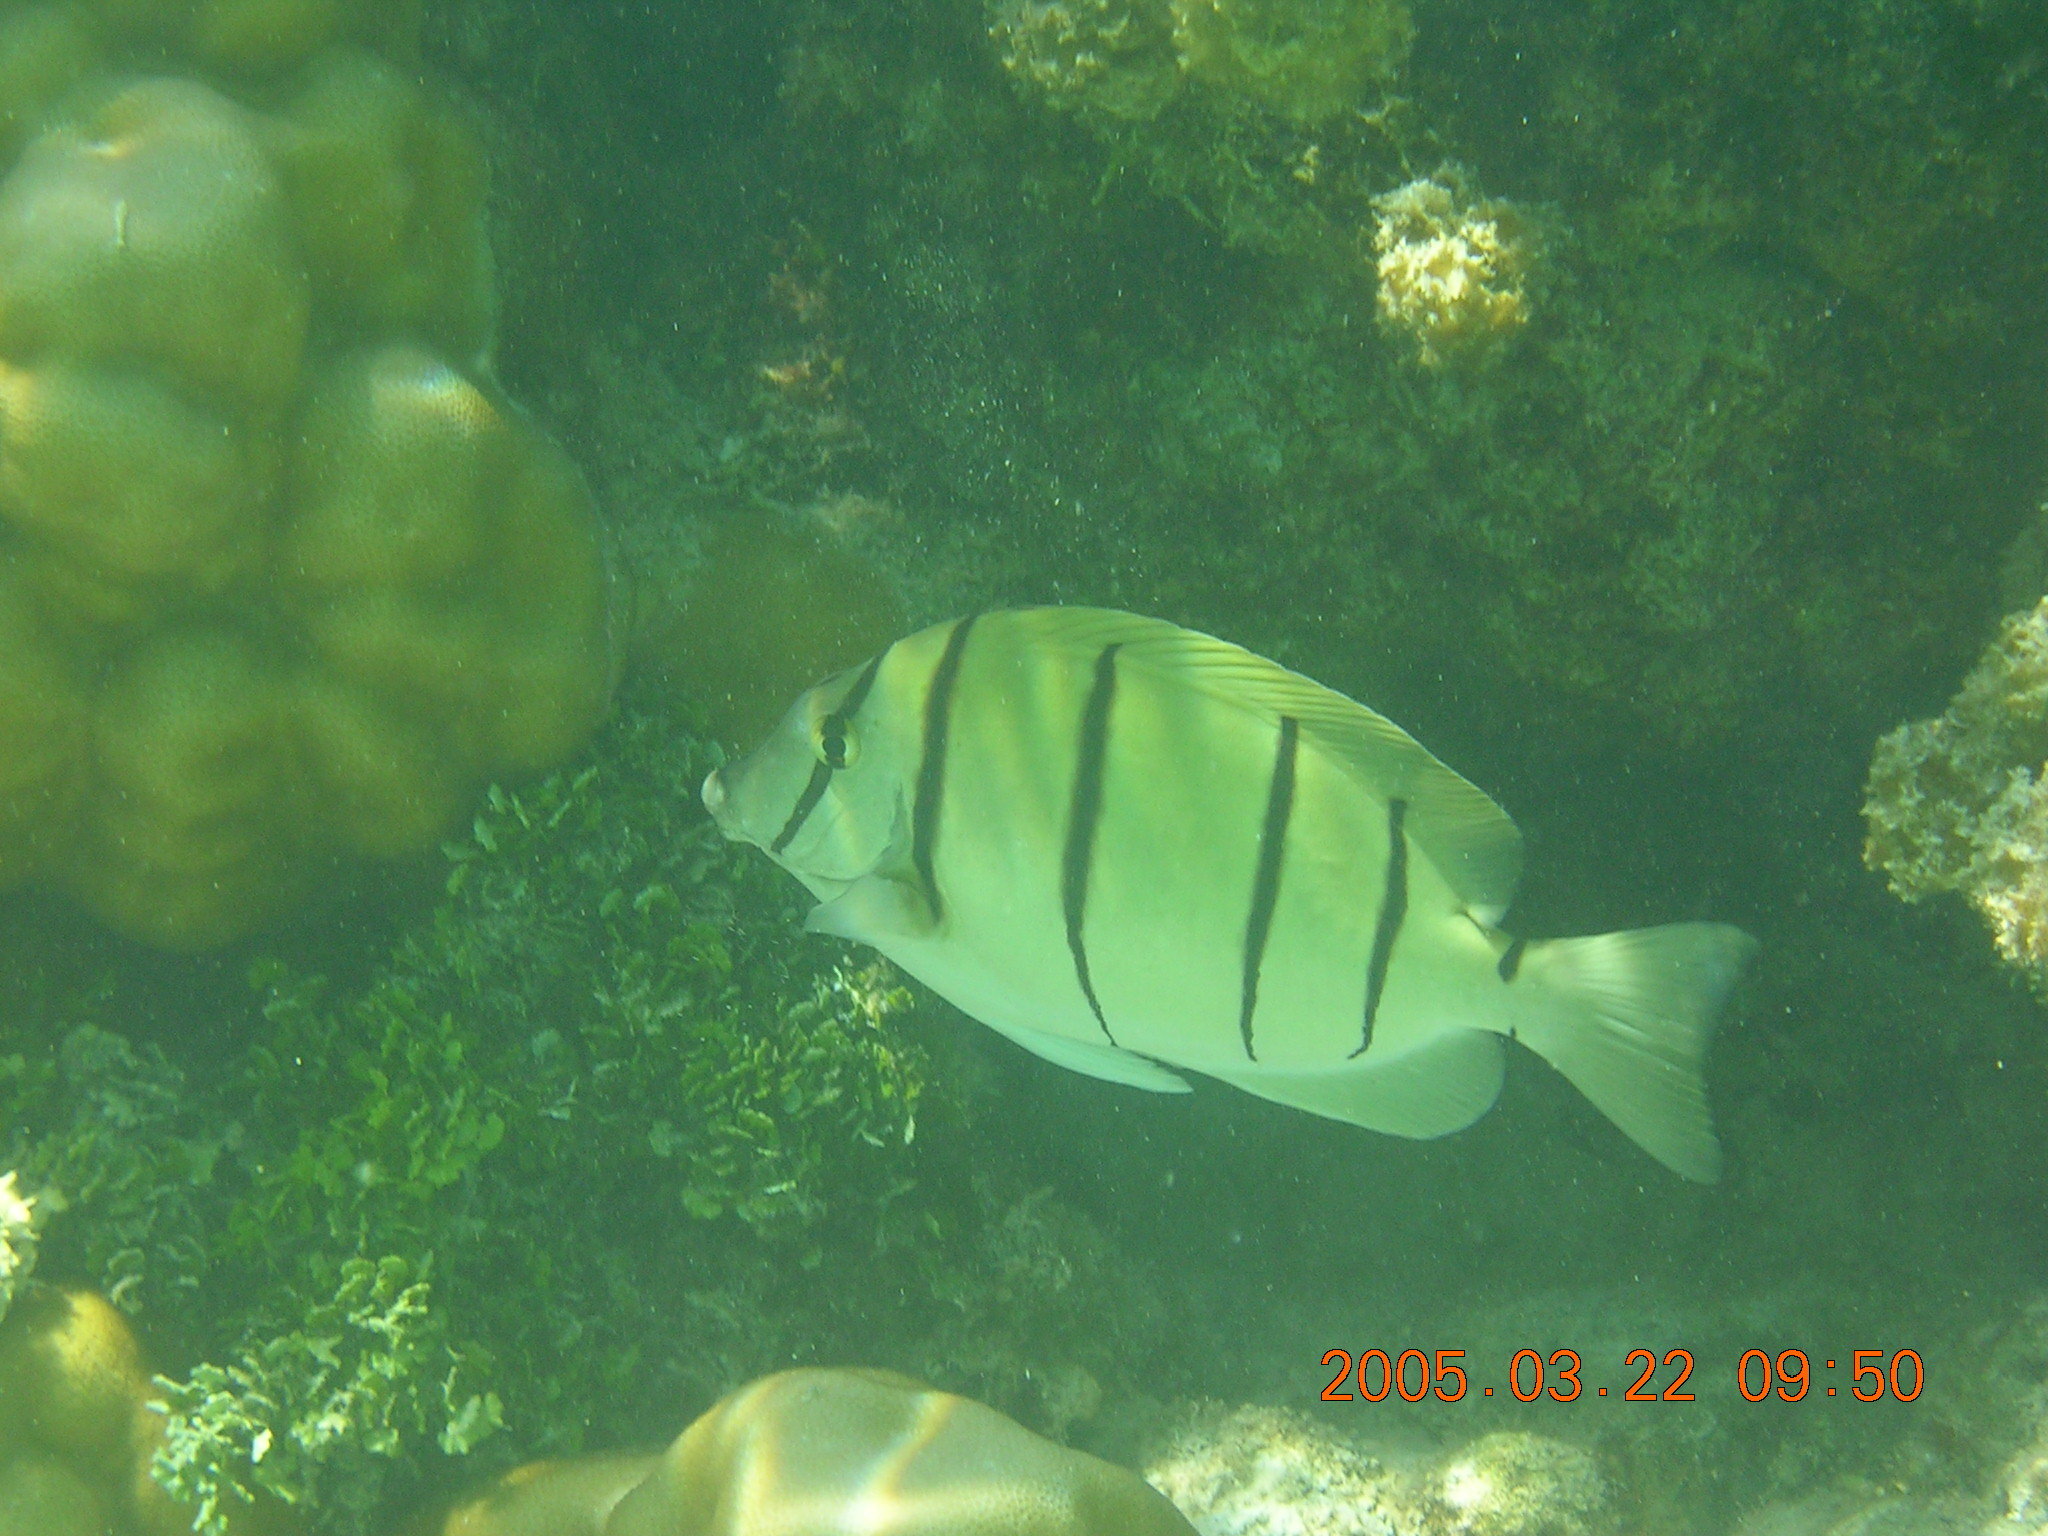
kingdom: Animalia
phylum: Chordata
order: Perciformes
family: Acanthuridae
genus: Acanthurus
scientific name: Acanthurus triostegus
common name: Convict surgeonfish
